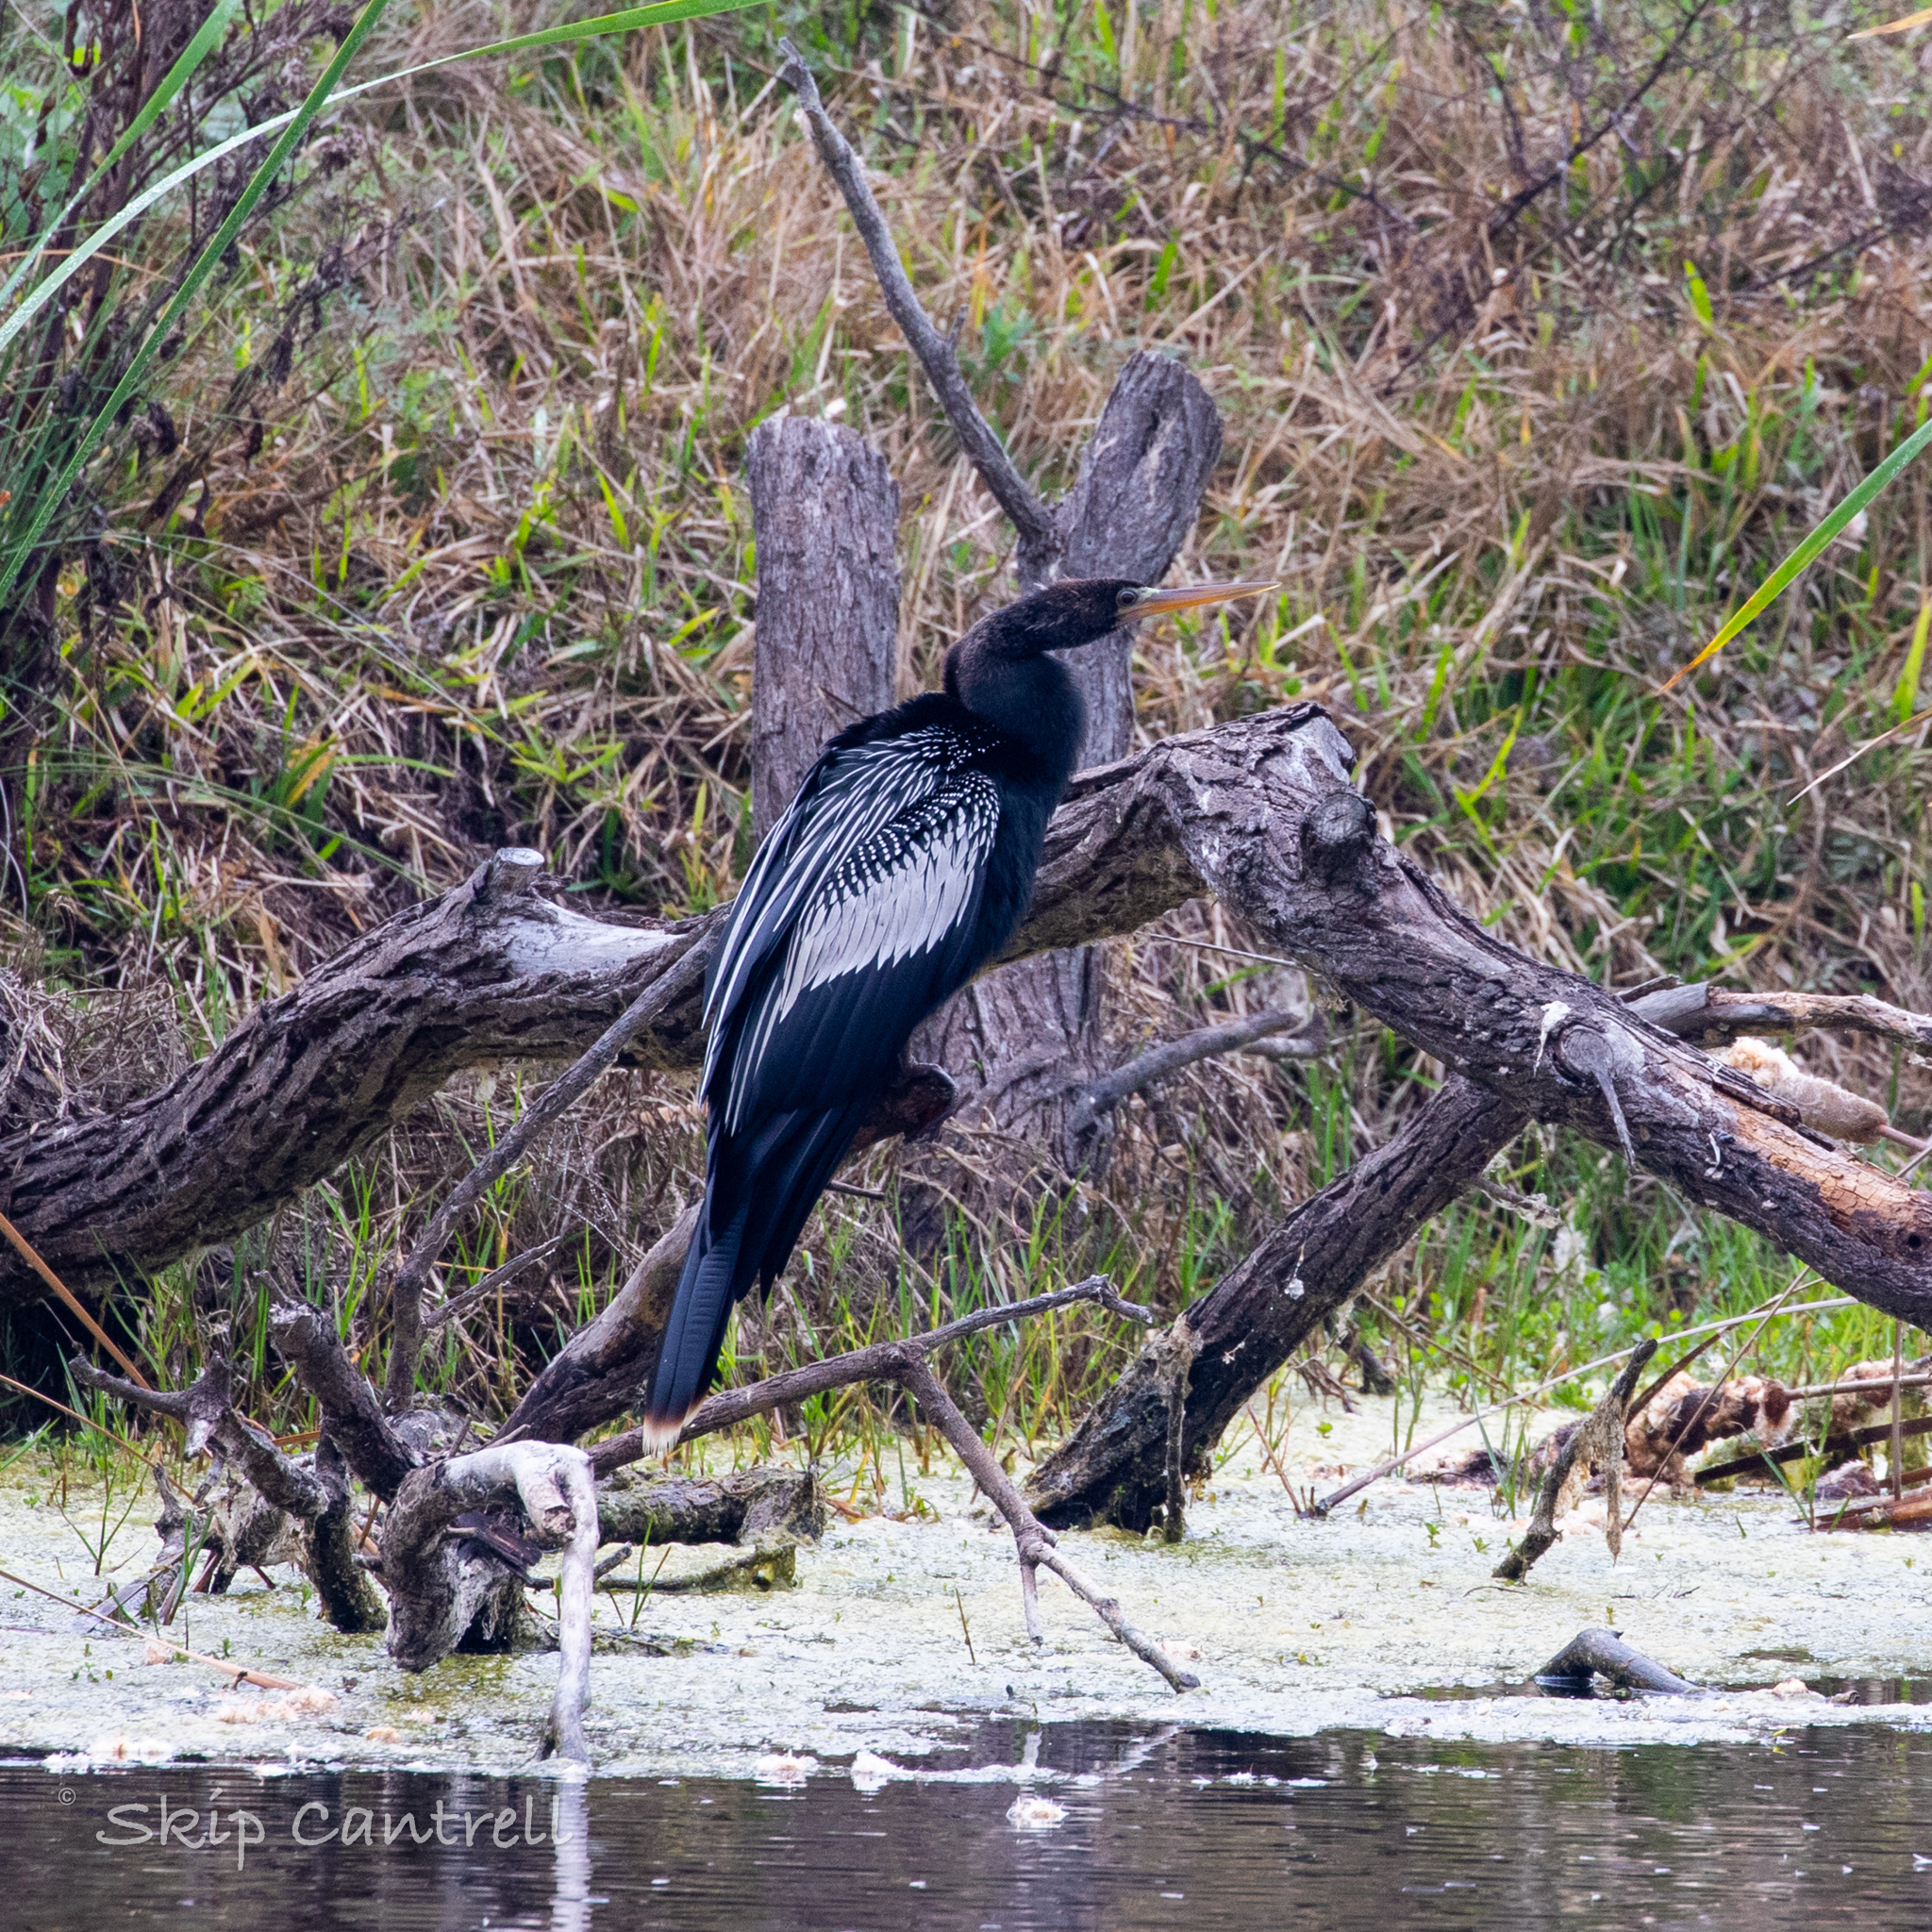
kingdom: Animalia
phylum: Chordata
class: Aves
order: Suliformes
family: Anhingidae
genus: Anhinga
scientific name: Anhinga anhinga
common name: Anhinga
